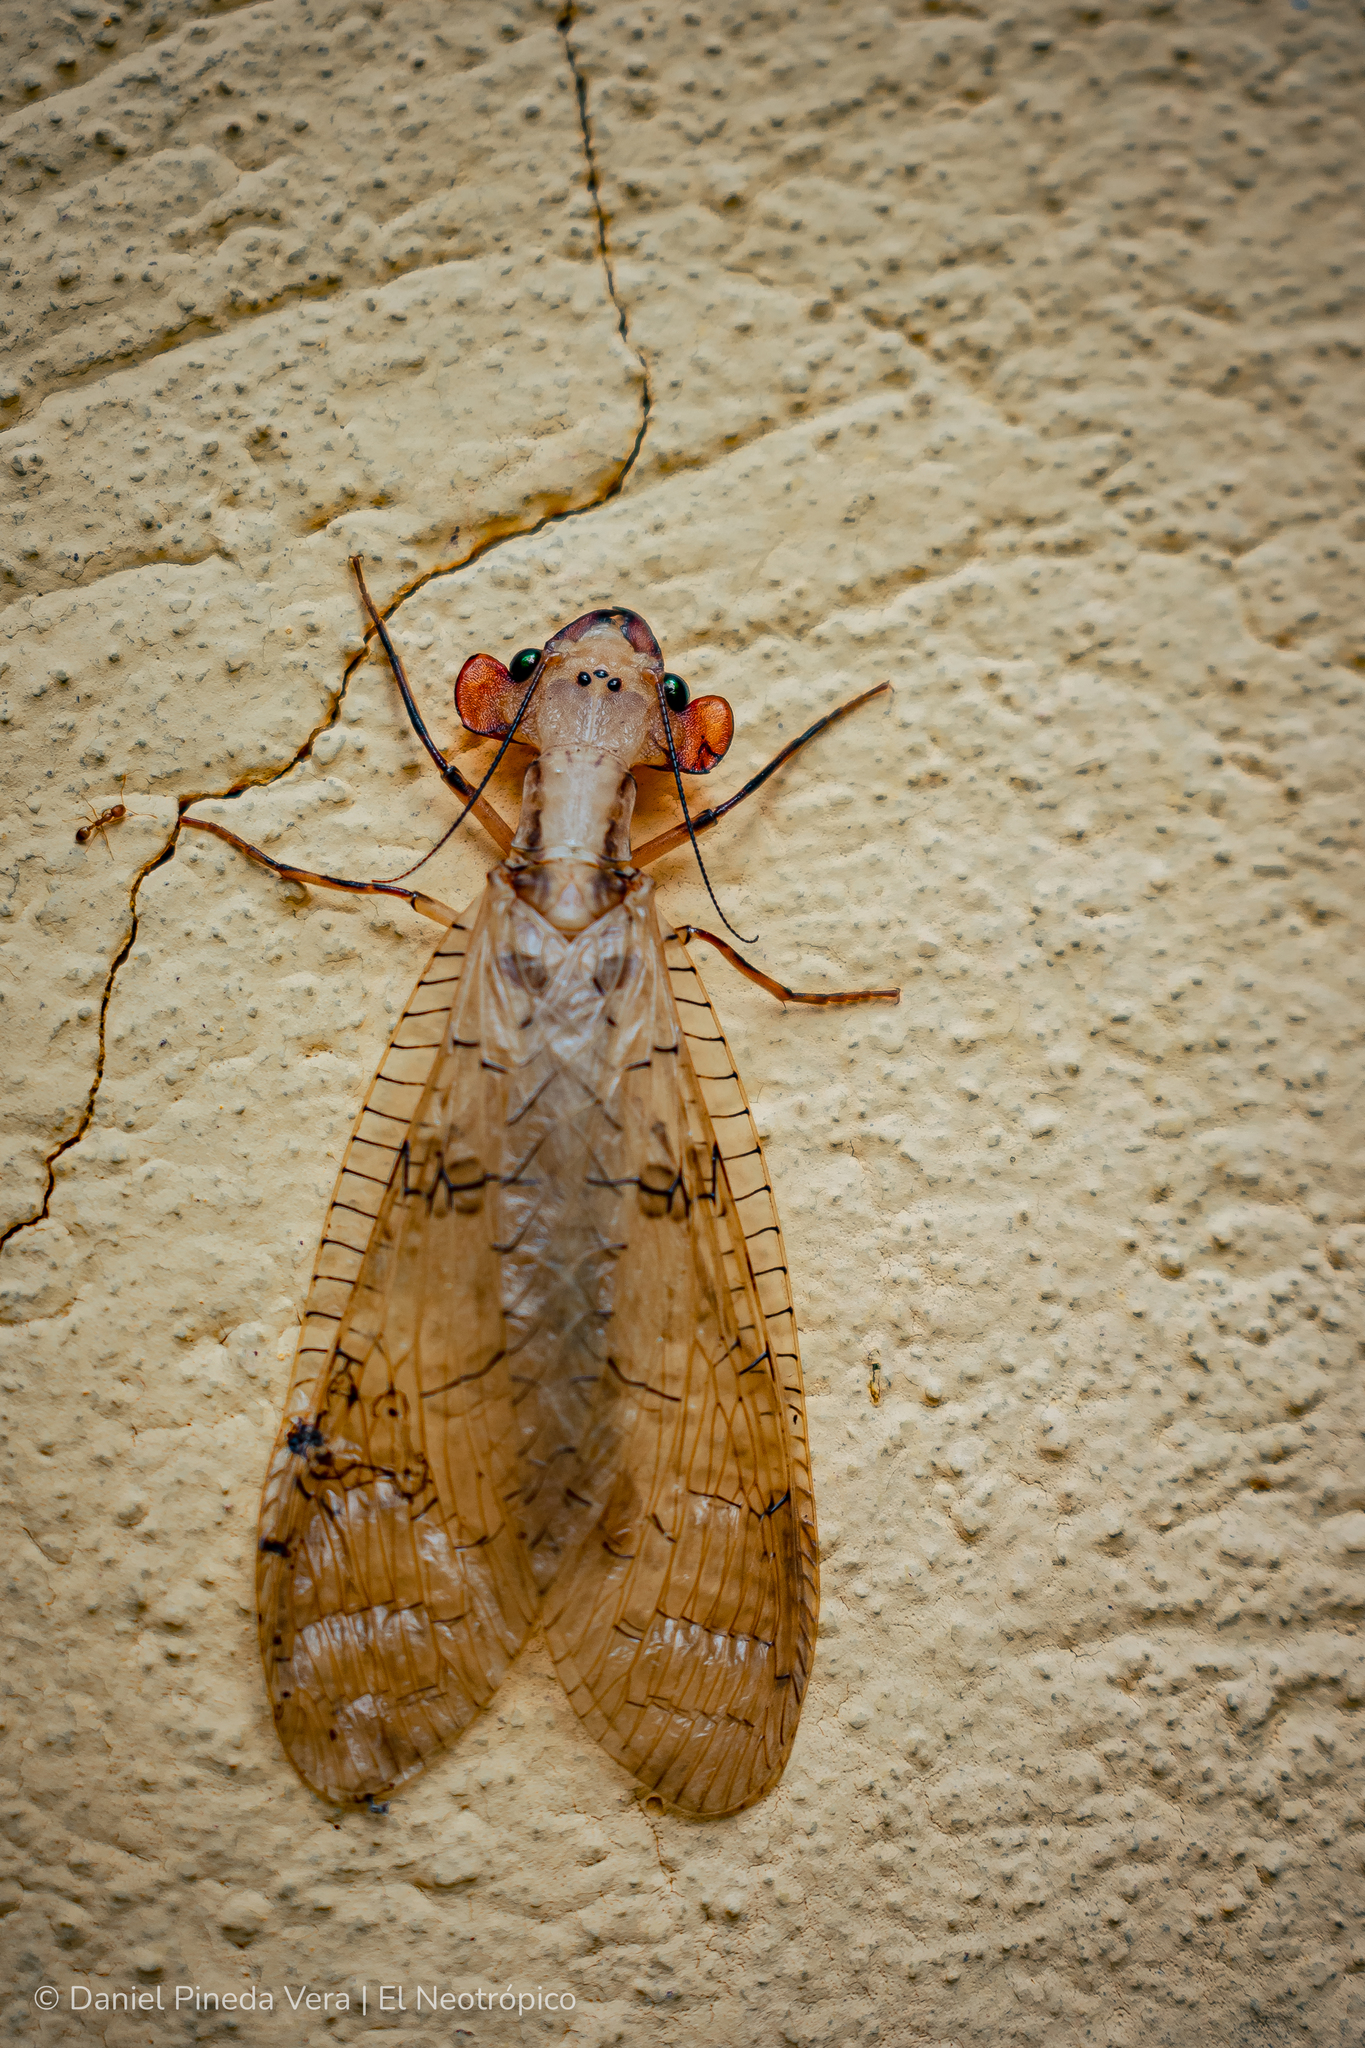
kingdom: Animalia
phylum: Arthropoda
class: Insecta
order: Megaloptera
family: Corydalidae
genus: Platyneuromus
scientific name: Platyneuromus honduranus
